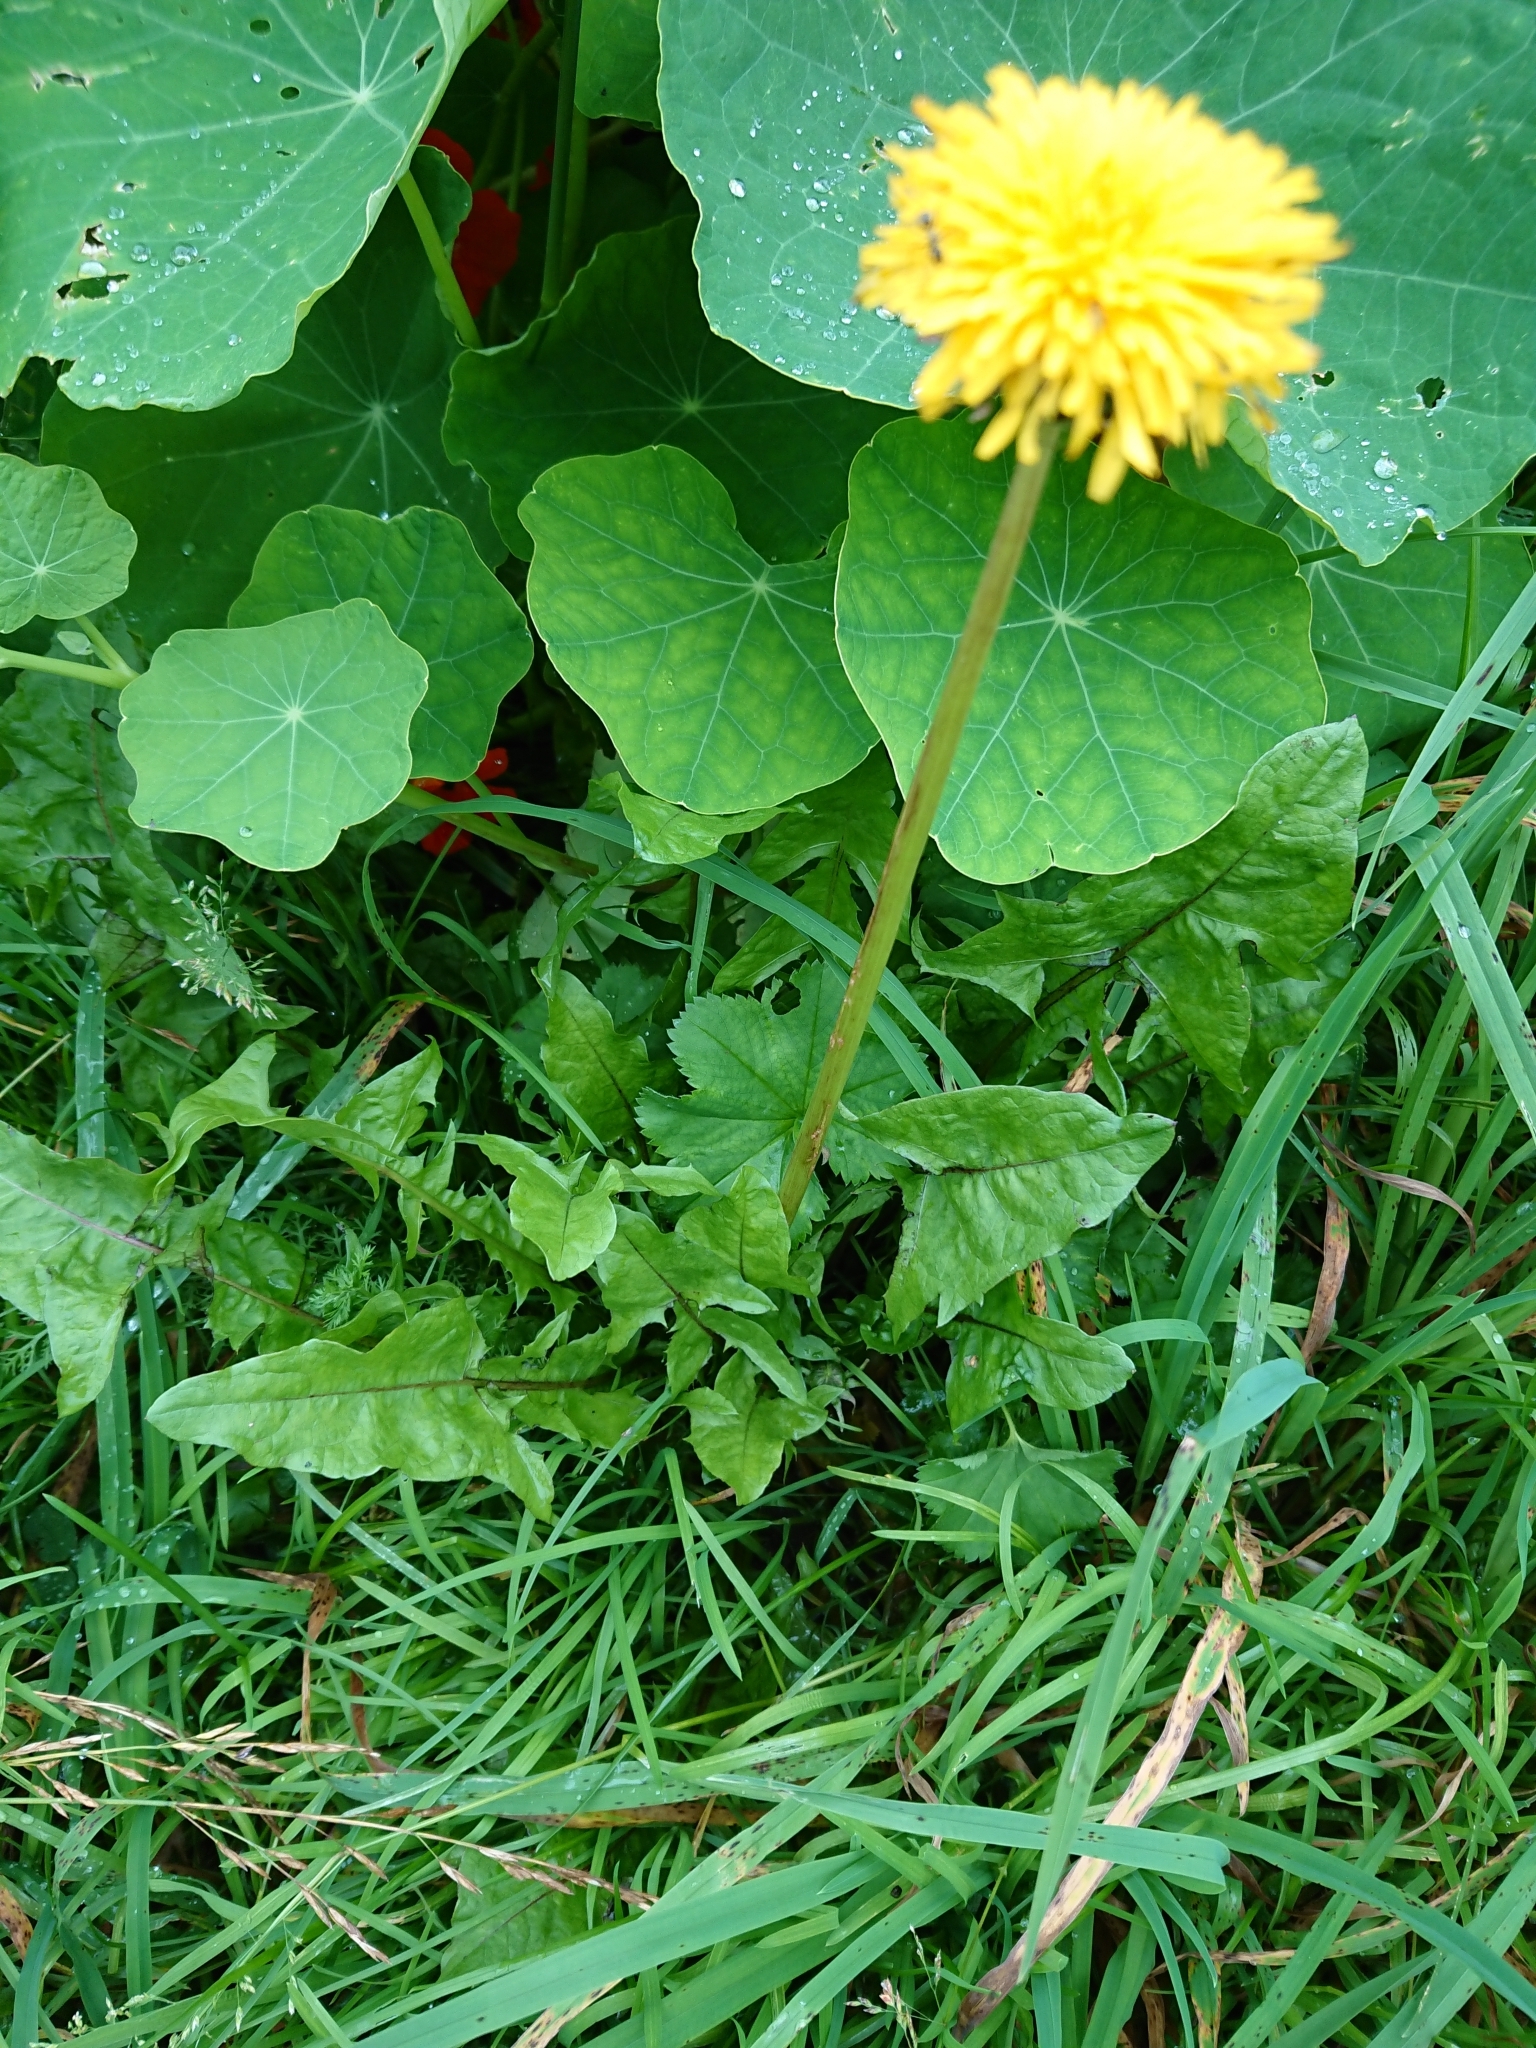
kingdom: Plantae
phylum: Tracheophyta
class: Magnoliopsida
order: Asterales
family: Asteraceae
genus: Taraxacum
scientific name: Taraxacum officinale
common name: Common dandelion
